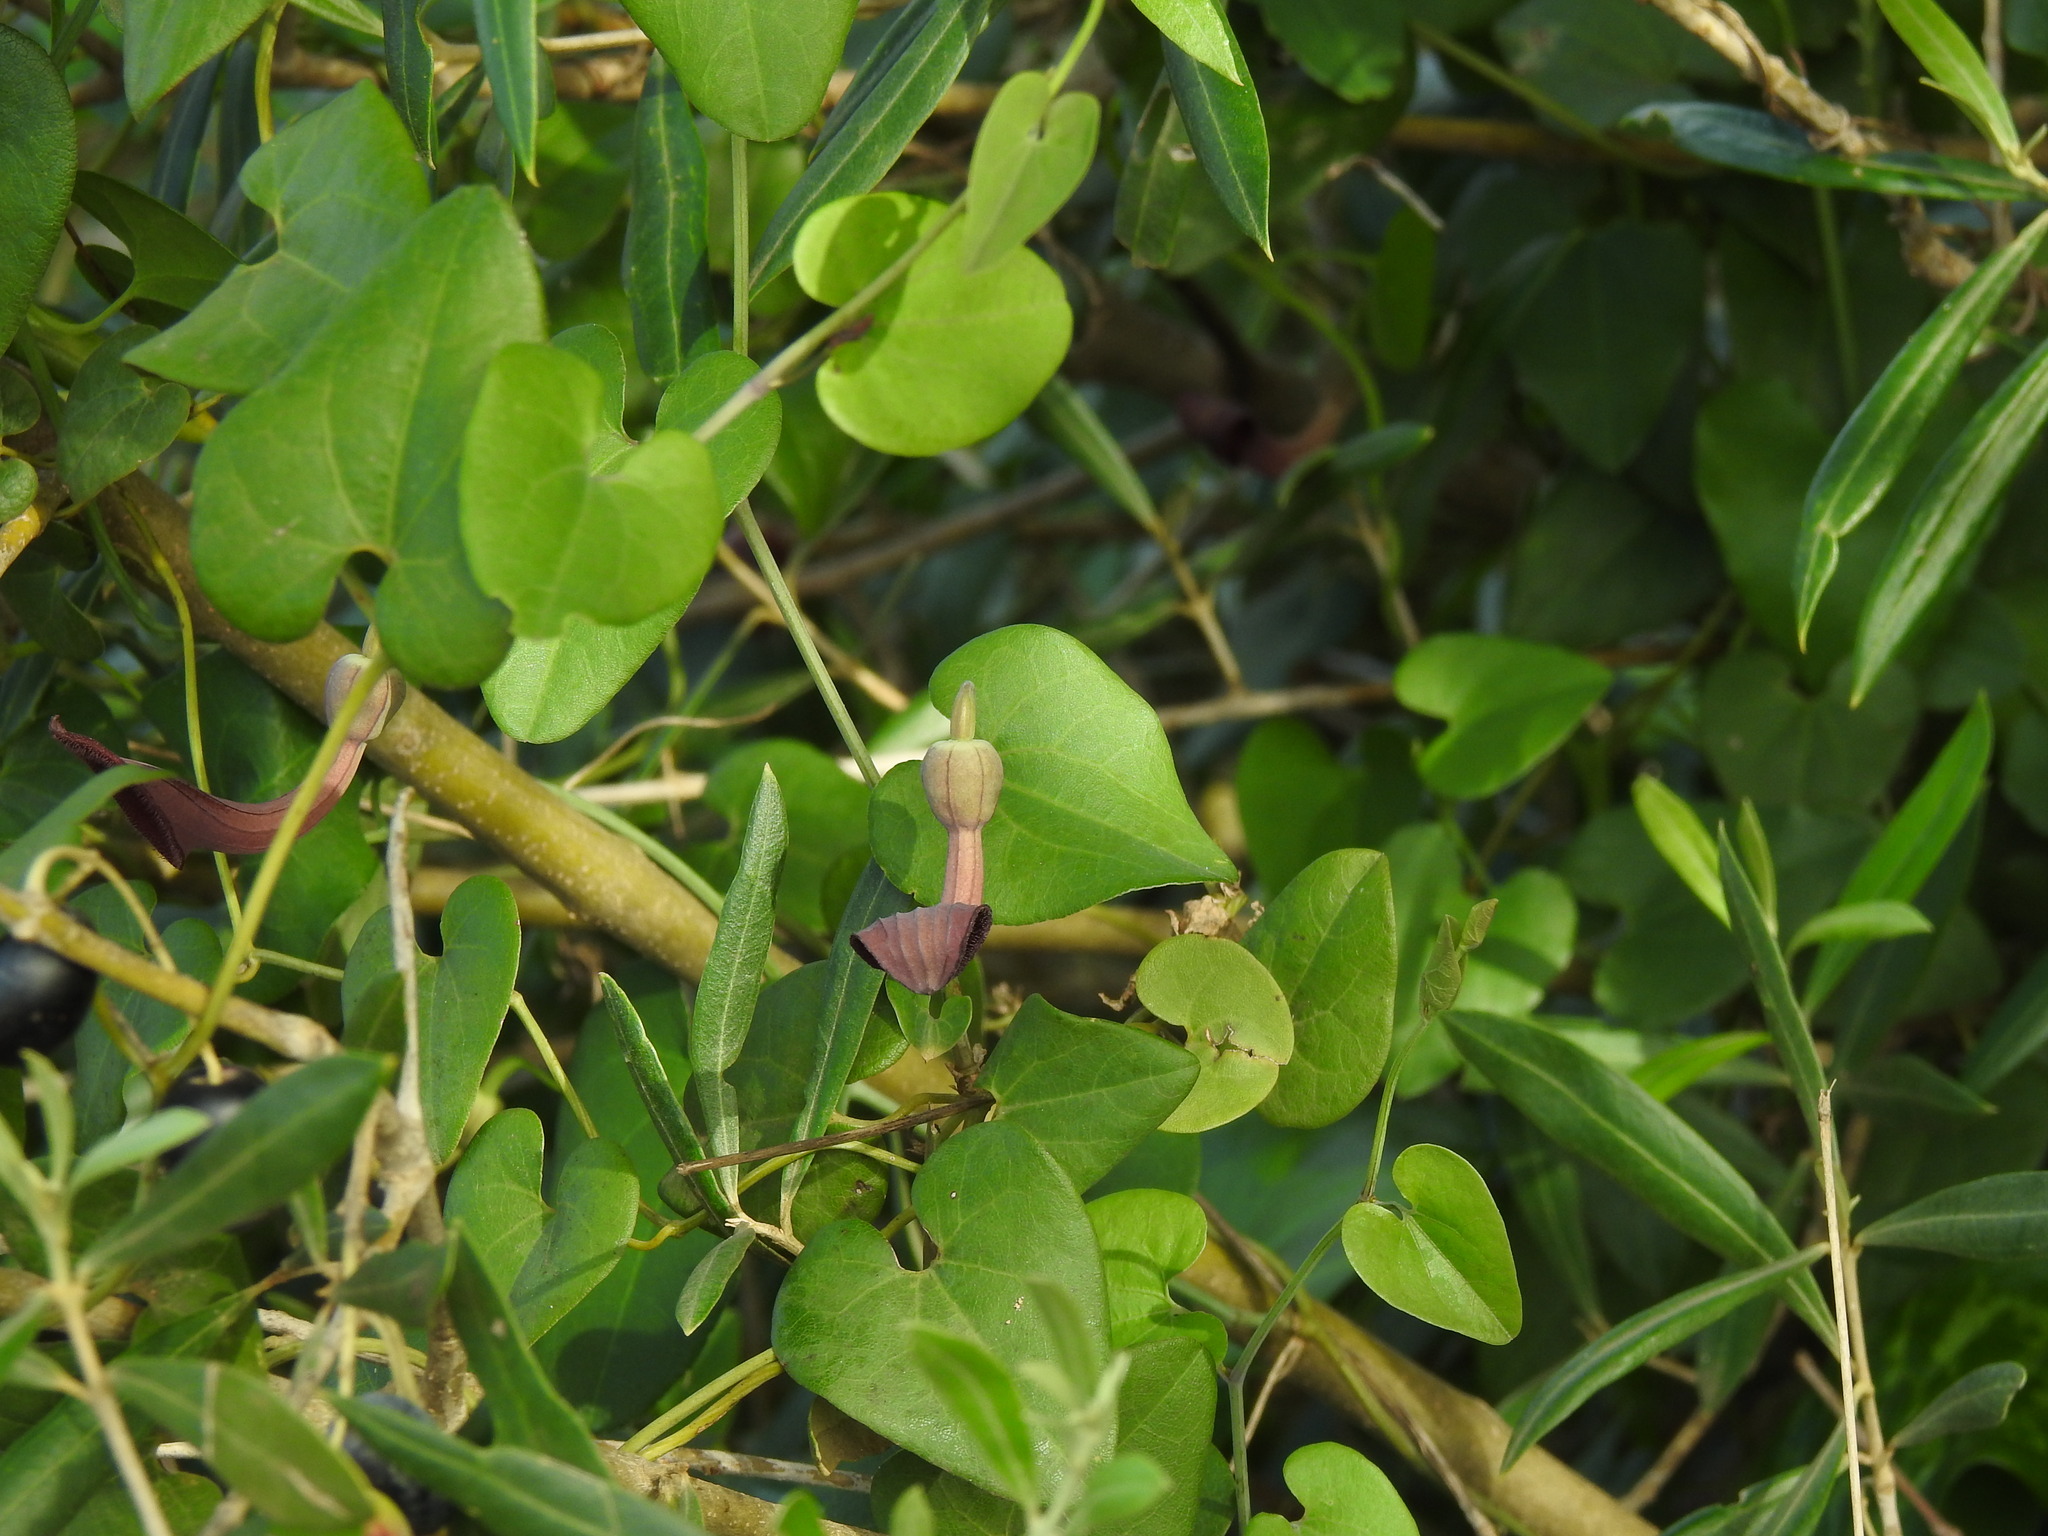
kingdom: Plantae
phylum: Tracheophyta
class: Magnoliopsida
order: Piperales
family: Aristolochiaceae
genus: Aristolochia
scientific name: Aristolochia baetica
